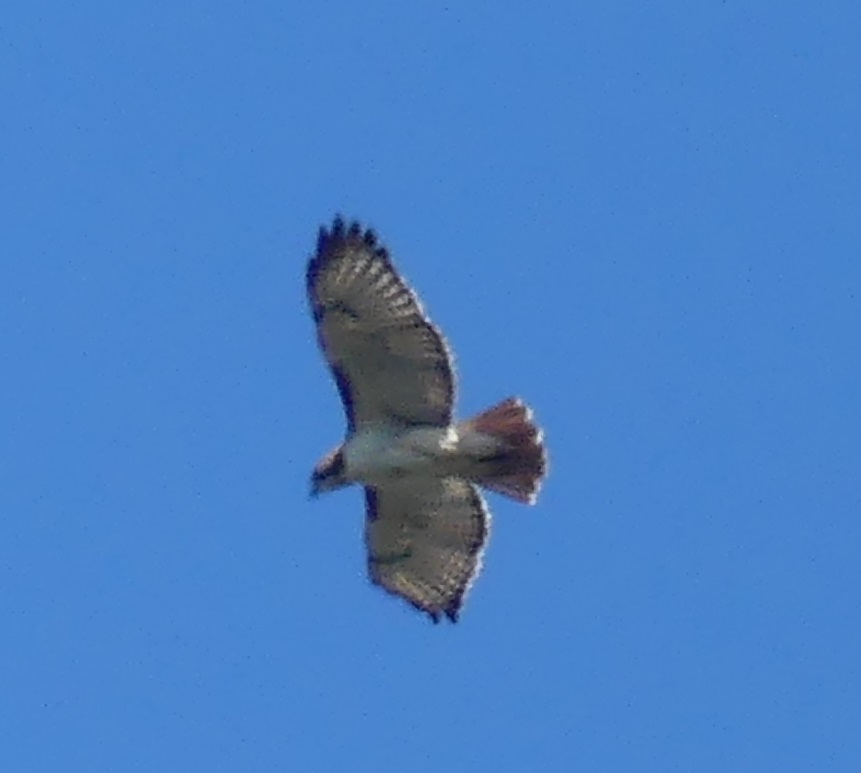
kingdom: Animalia
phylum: Chordata
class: Aves
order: Accipitriformes
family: Accipitridae
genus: Buteo
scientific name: Buteo jamaicensis
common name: Red-tailed hawk
